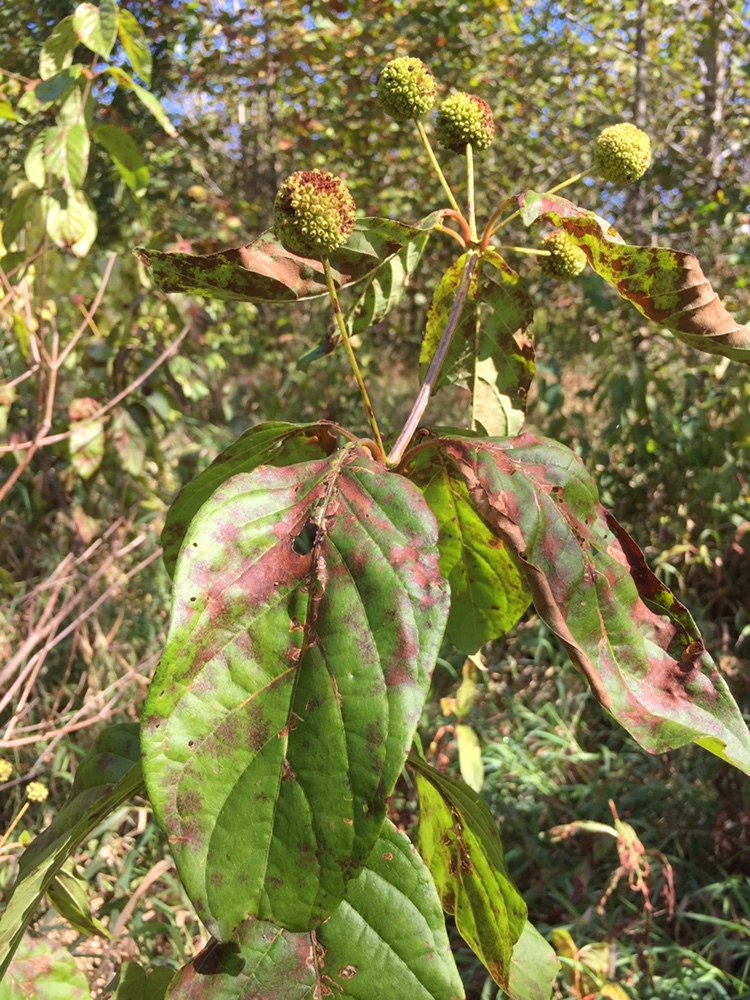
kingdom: Plantae
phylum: Tracheophyta
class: Magnoliopsida
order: Gentianales
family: Rubiaceae
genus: Cephalanthus
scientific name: Cephalanthus occidentalis
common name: Button-willow
